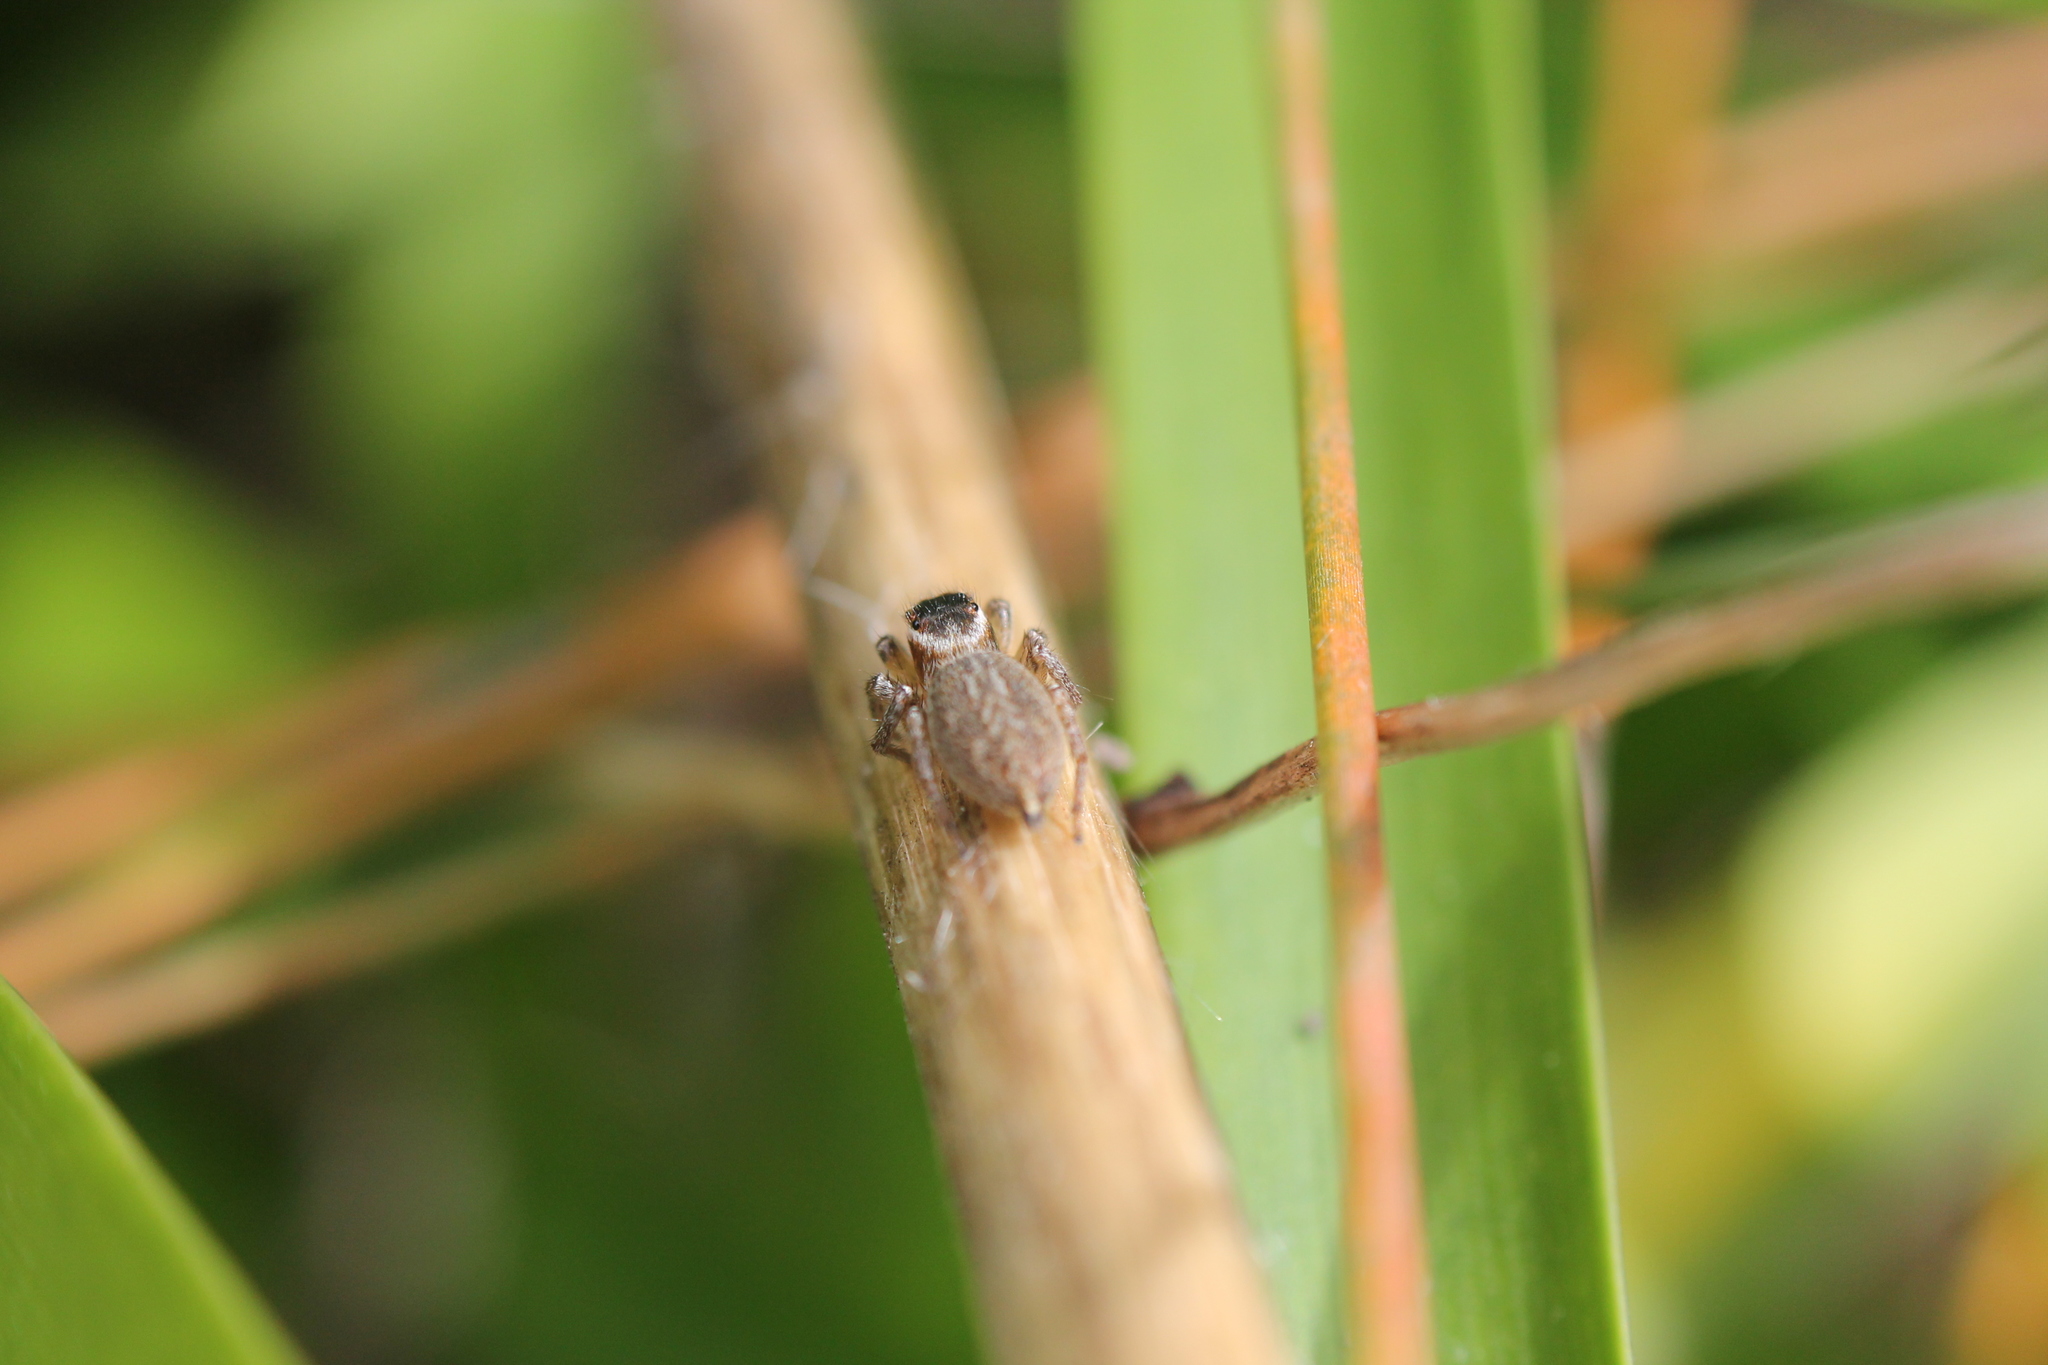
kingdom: Animalia
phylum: Arthropoda
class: Arachnida
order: Araneae
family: Salticidae
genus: Maratus
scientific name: Maratus griseus
